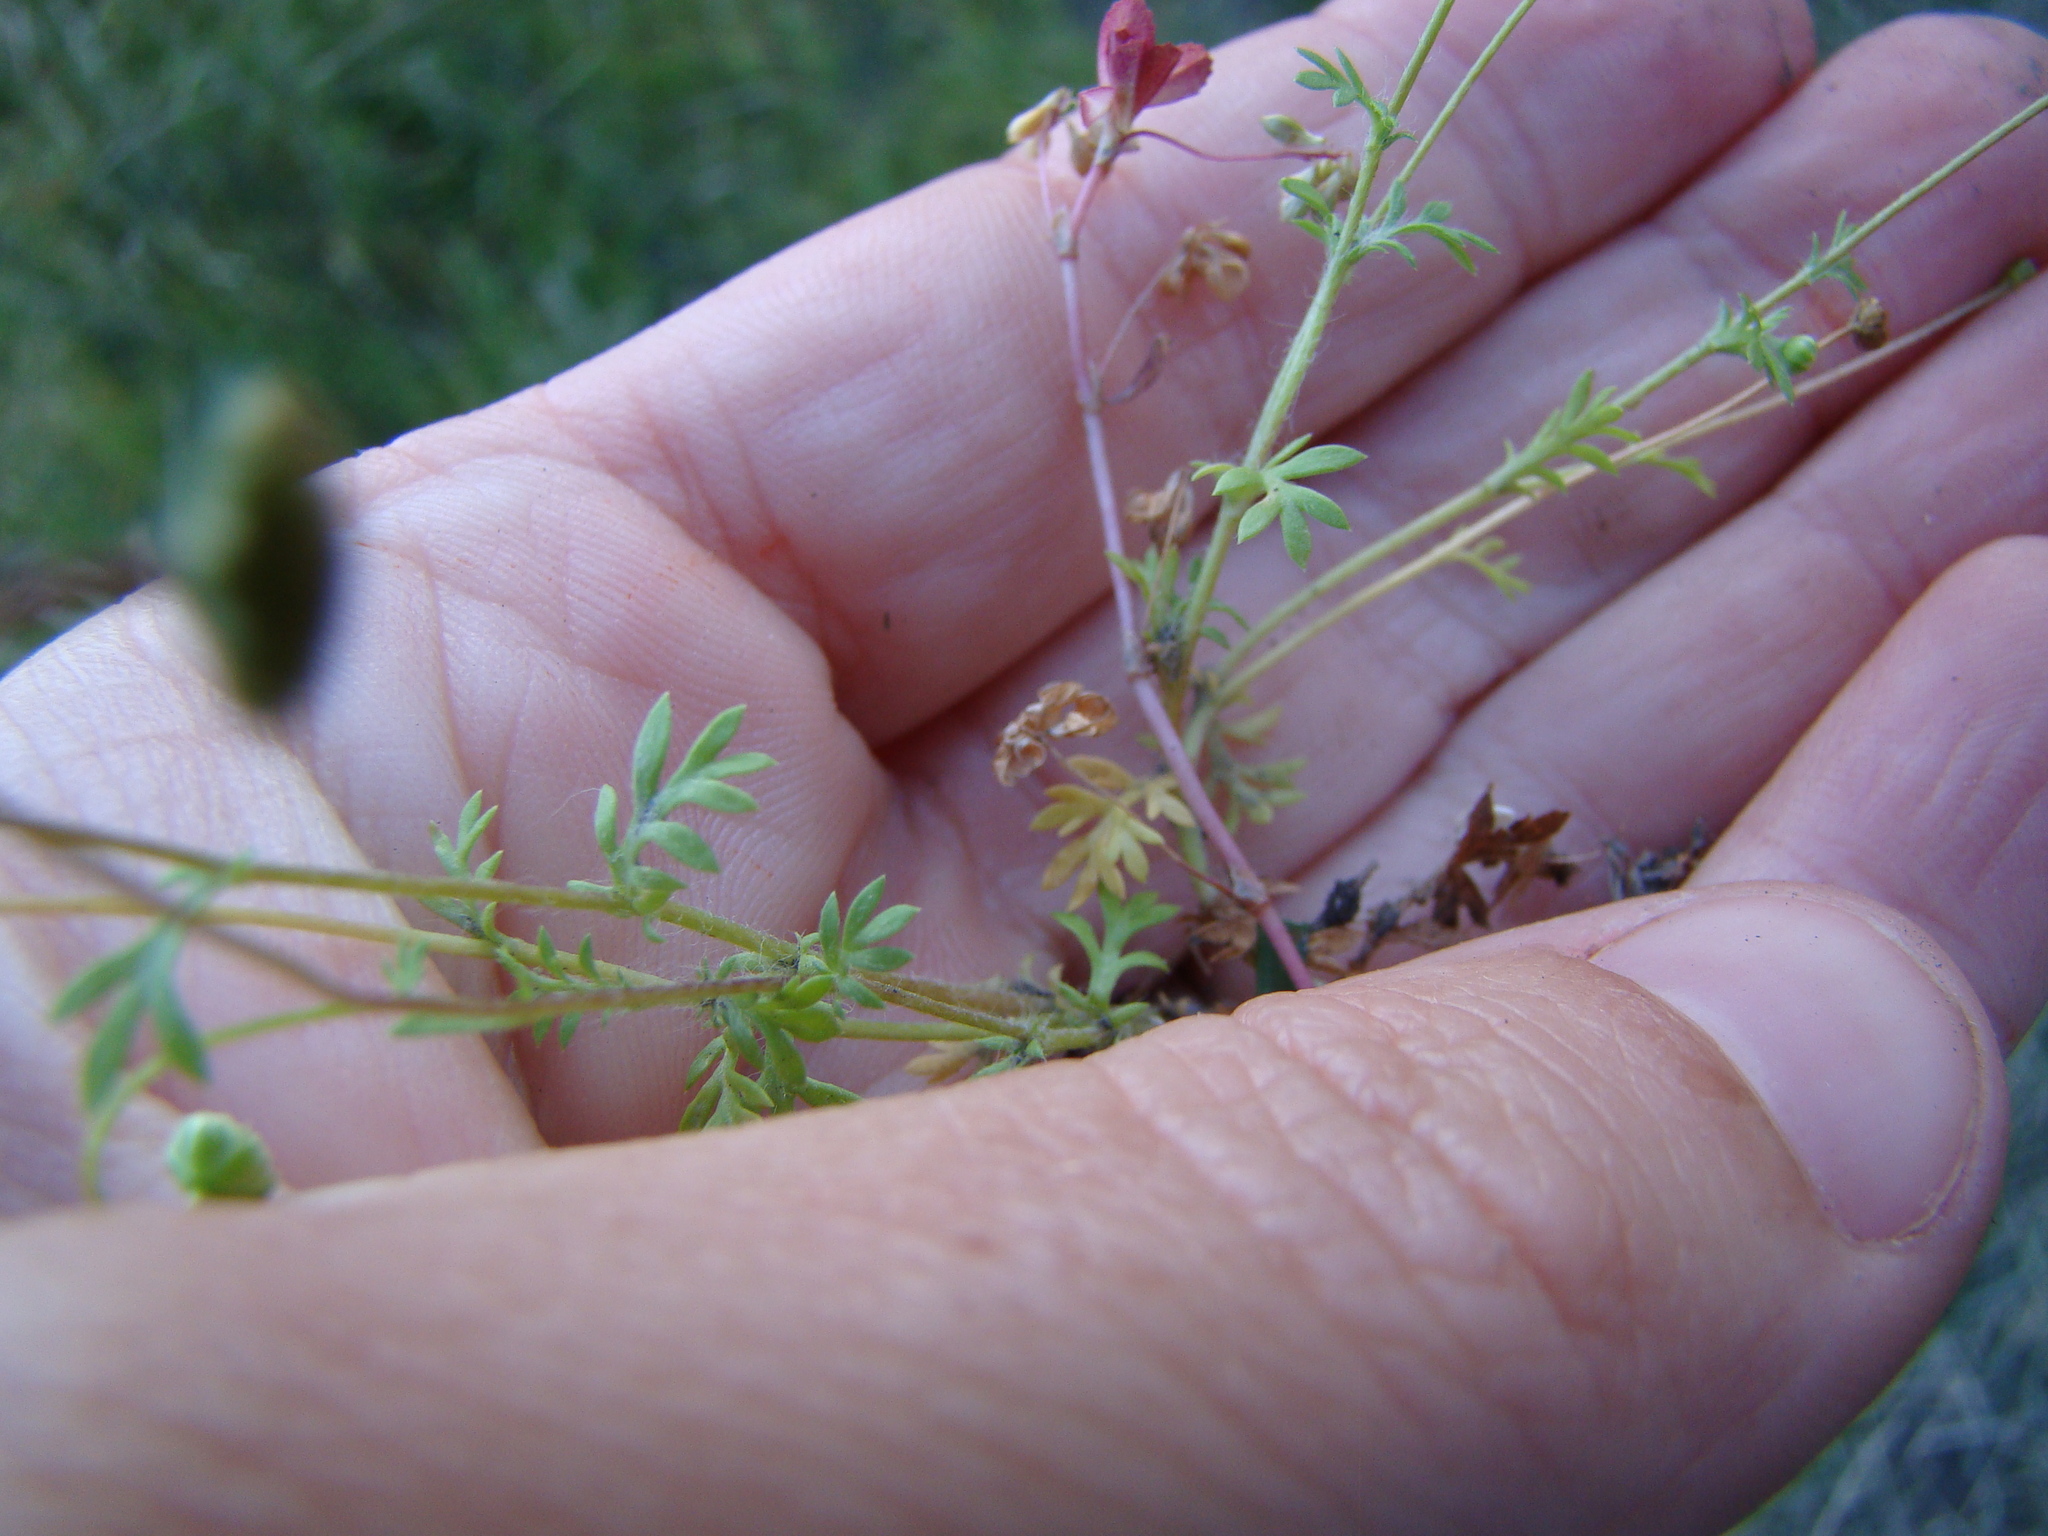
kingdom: Plantae
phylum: Tracheophyta
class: Magnoliopsida
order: Asterales
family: Asteraceae
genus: Cotula
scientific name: Cotula australis
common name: Australian waterbuttons
